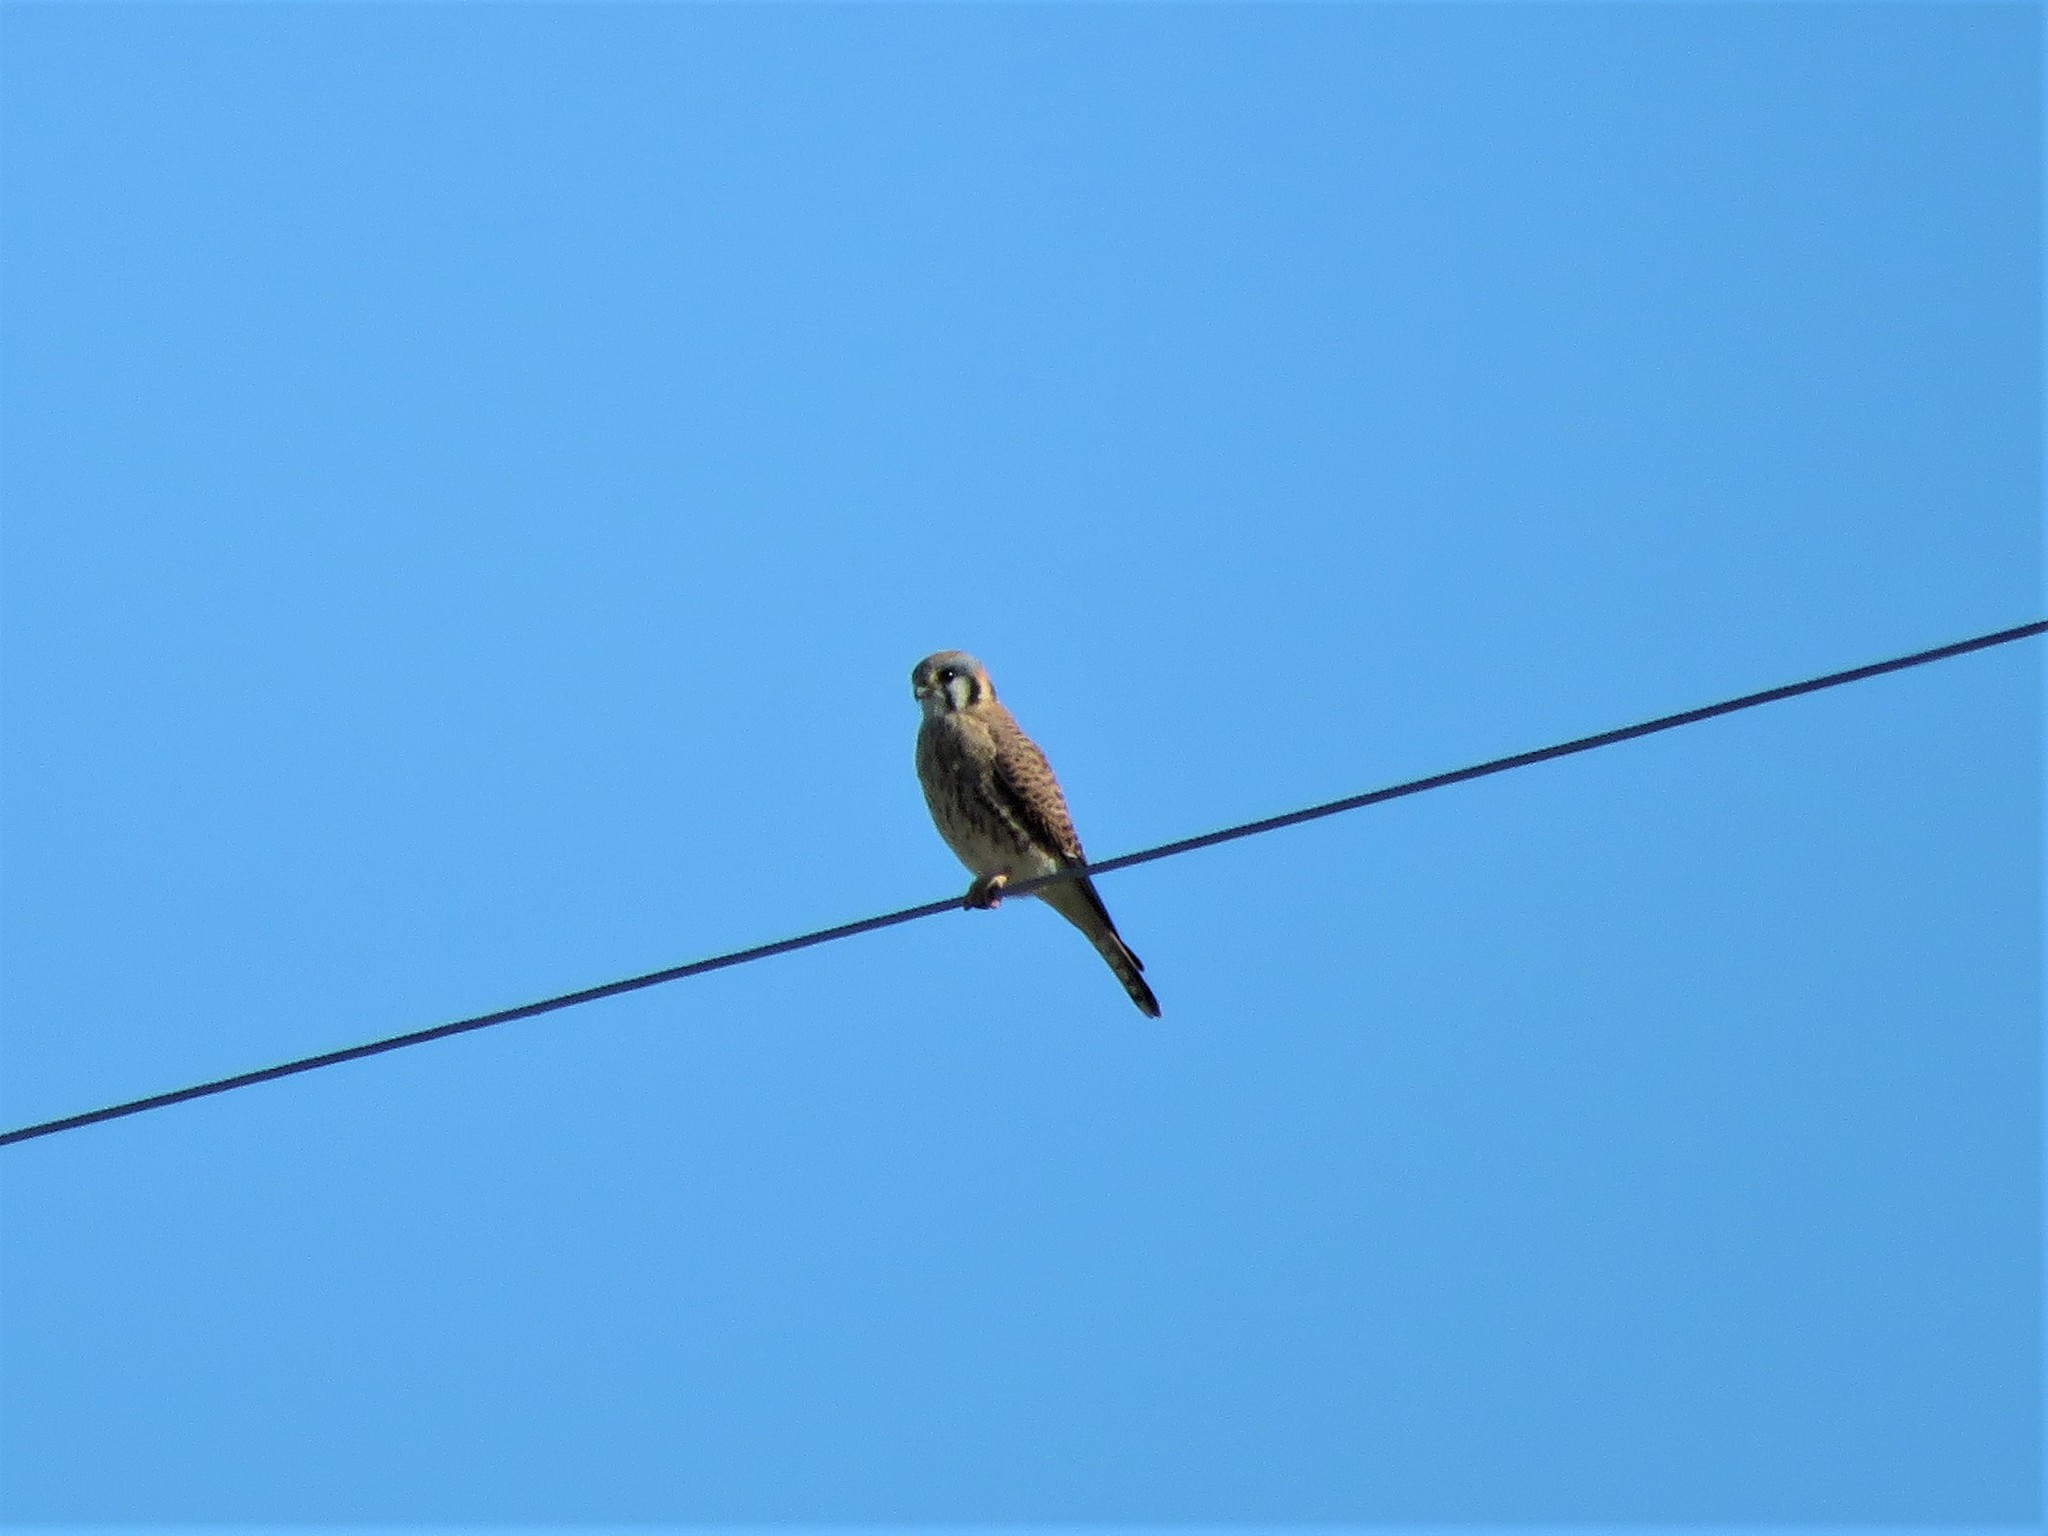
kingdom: Animalia
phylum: Chordata
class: Aves
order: Falconiformes
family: Falconidae
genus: Falco
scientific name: Falco sparverius
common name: American kestrel
